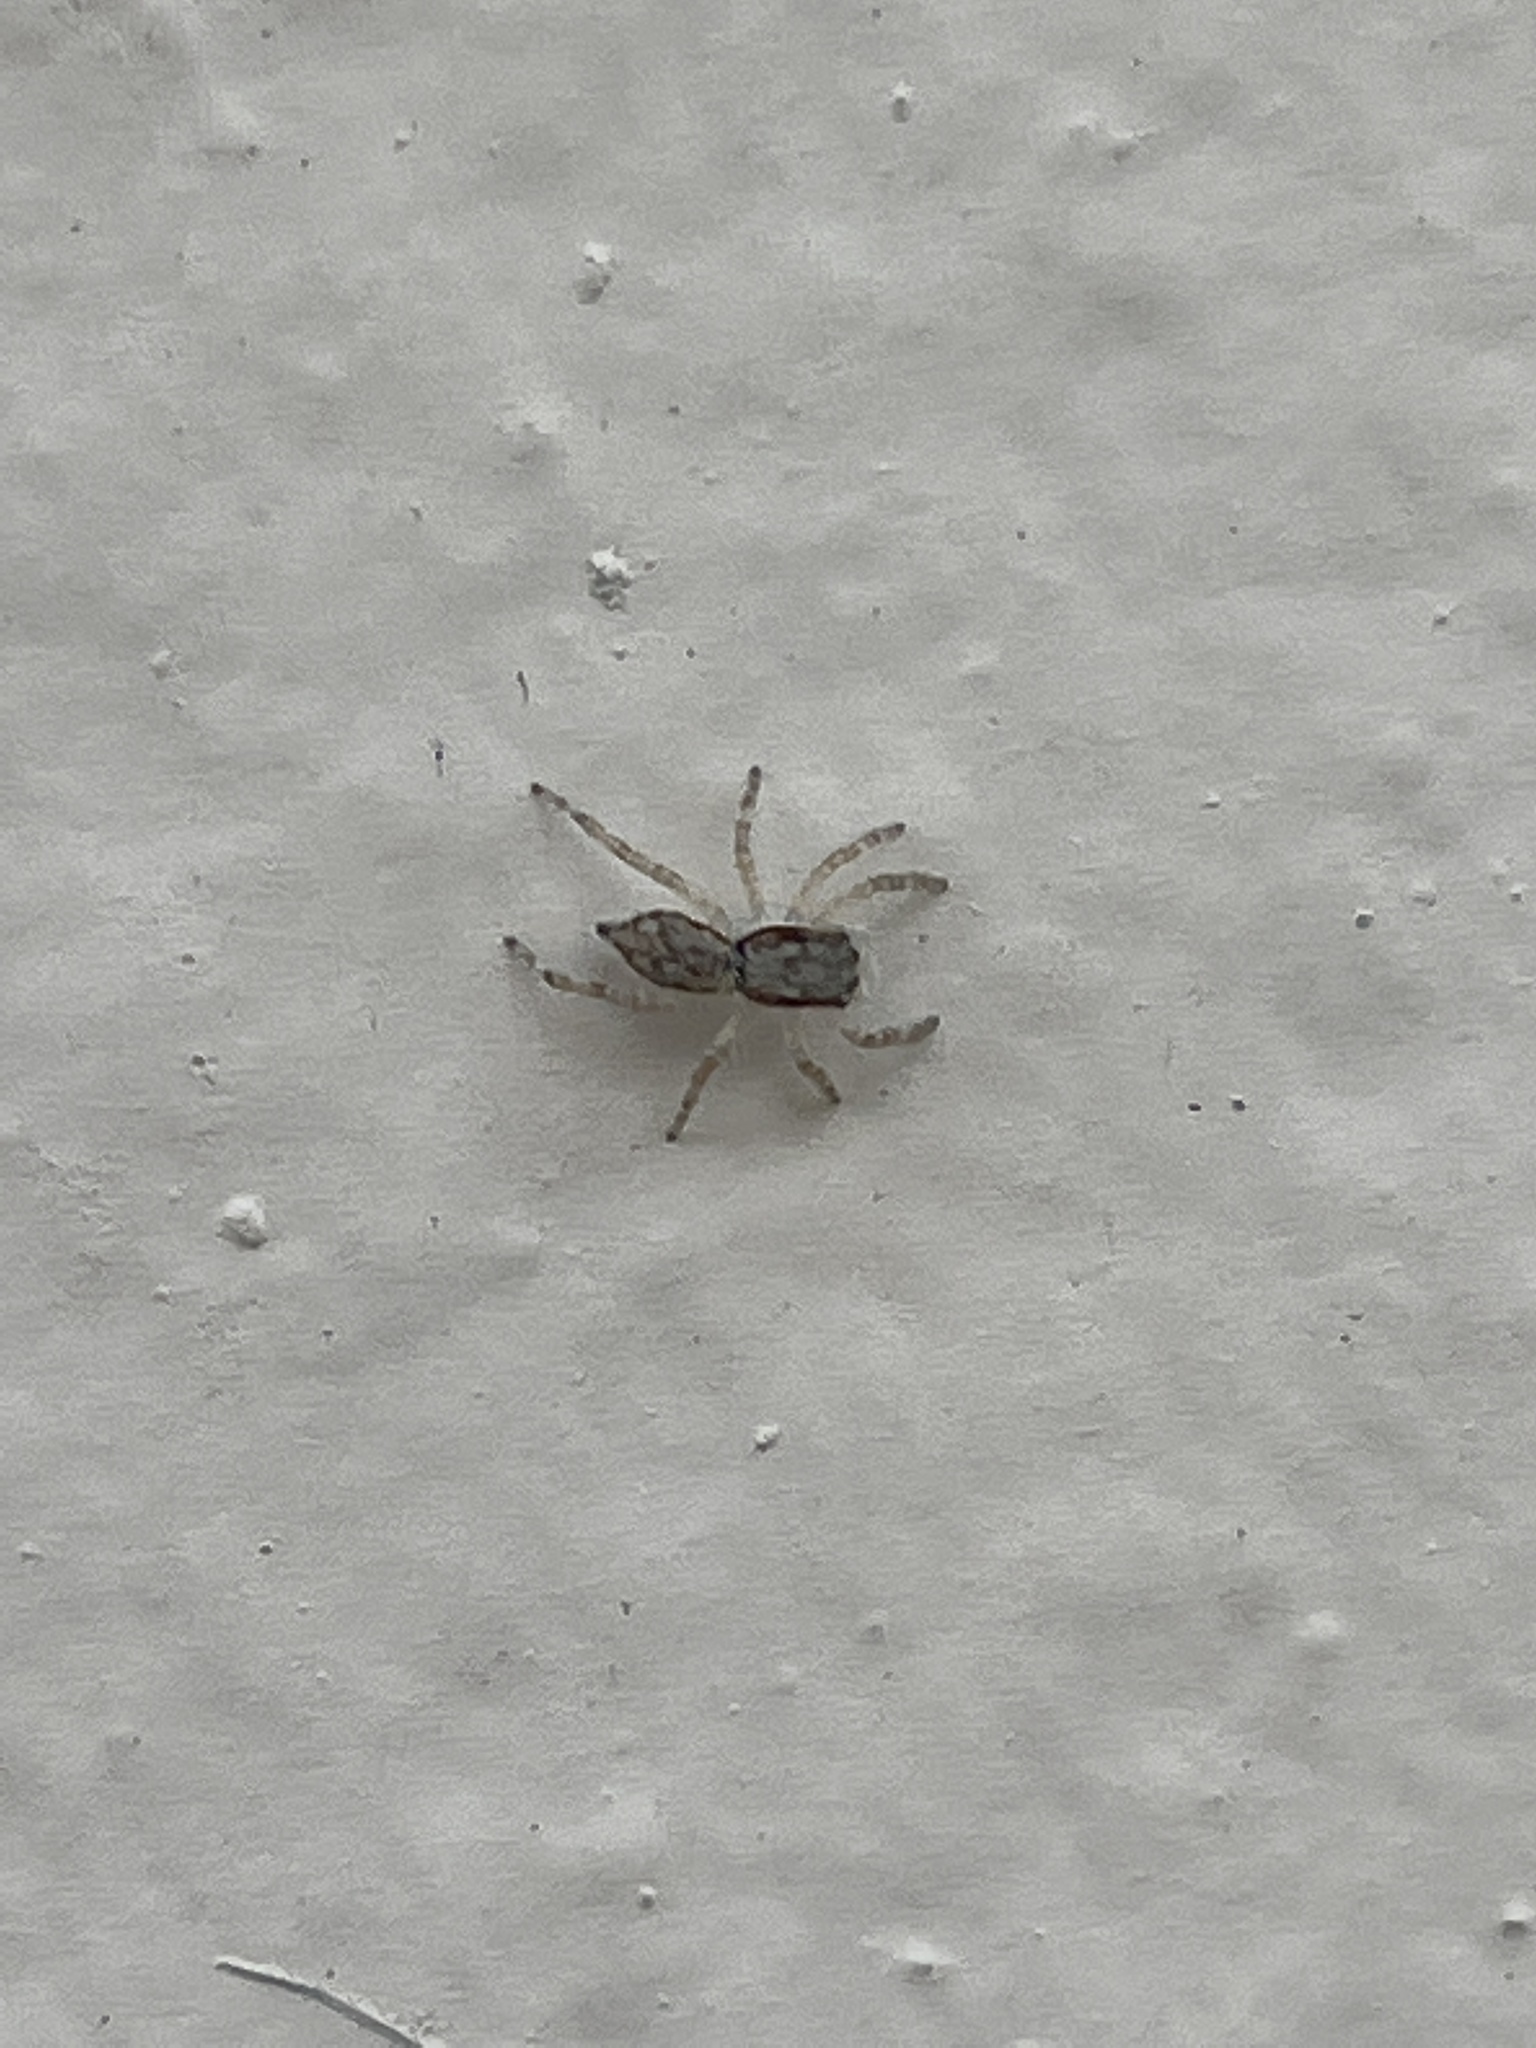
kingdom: Animalia
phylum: Arthropoda
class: Arachnida
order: Araneae
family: Salticidae
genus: Menemerus
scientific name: Menemerus bivittatus
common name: Gray wall jumper
